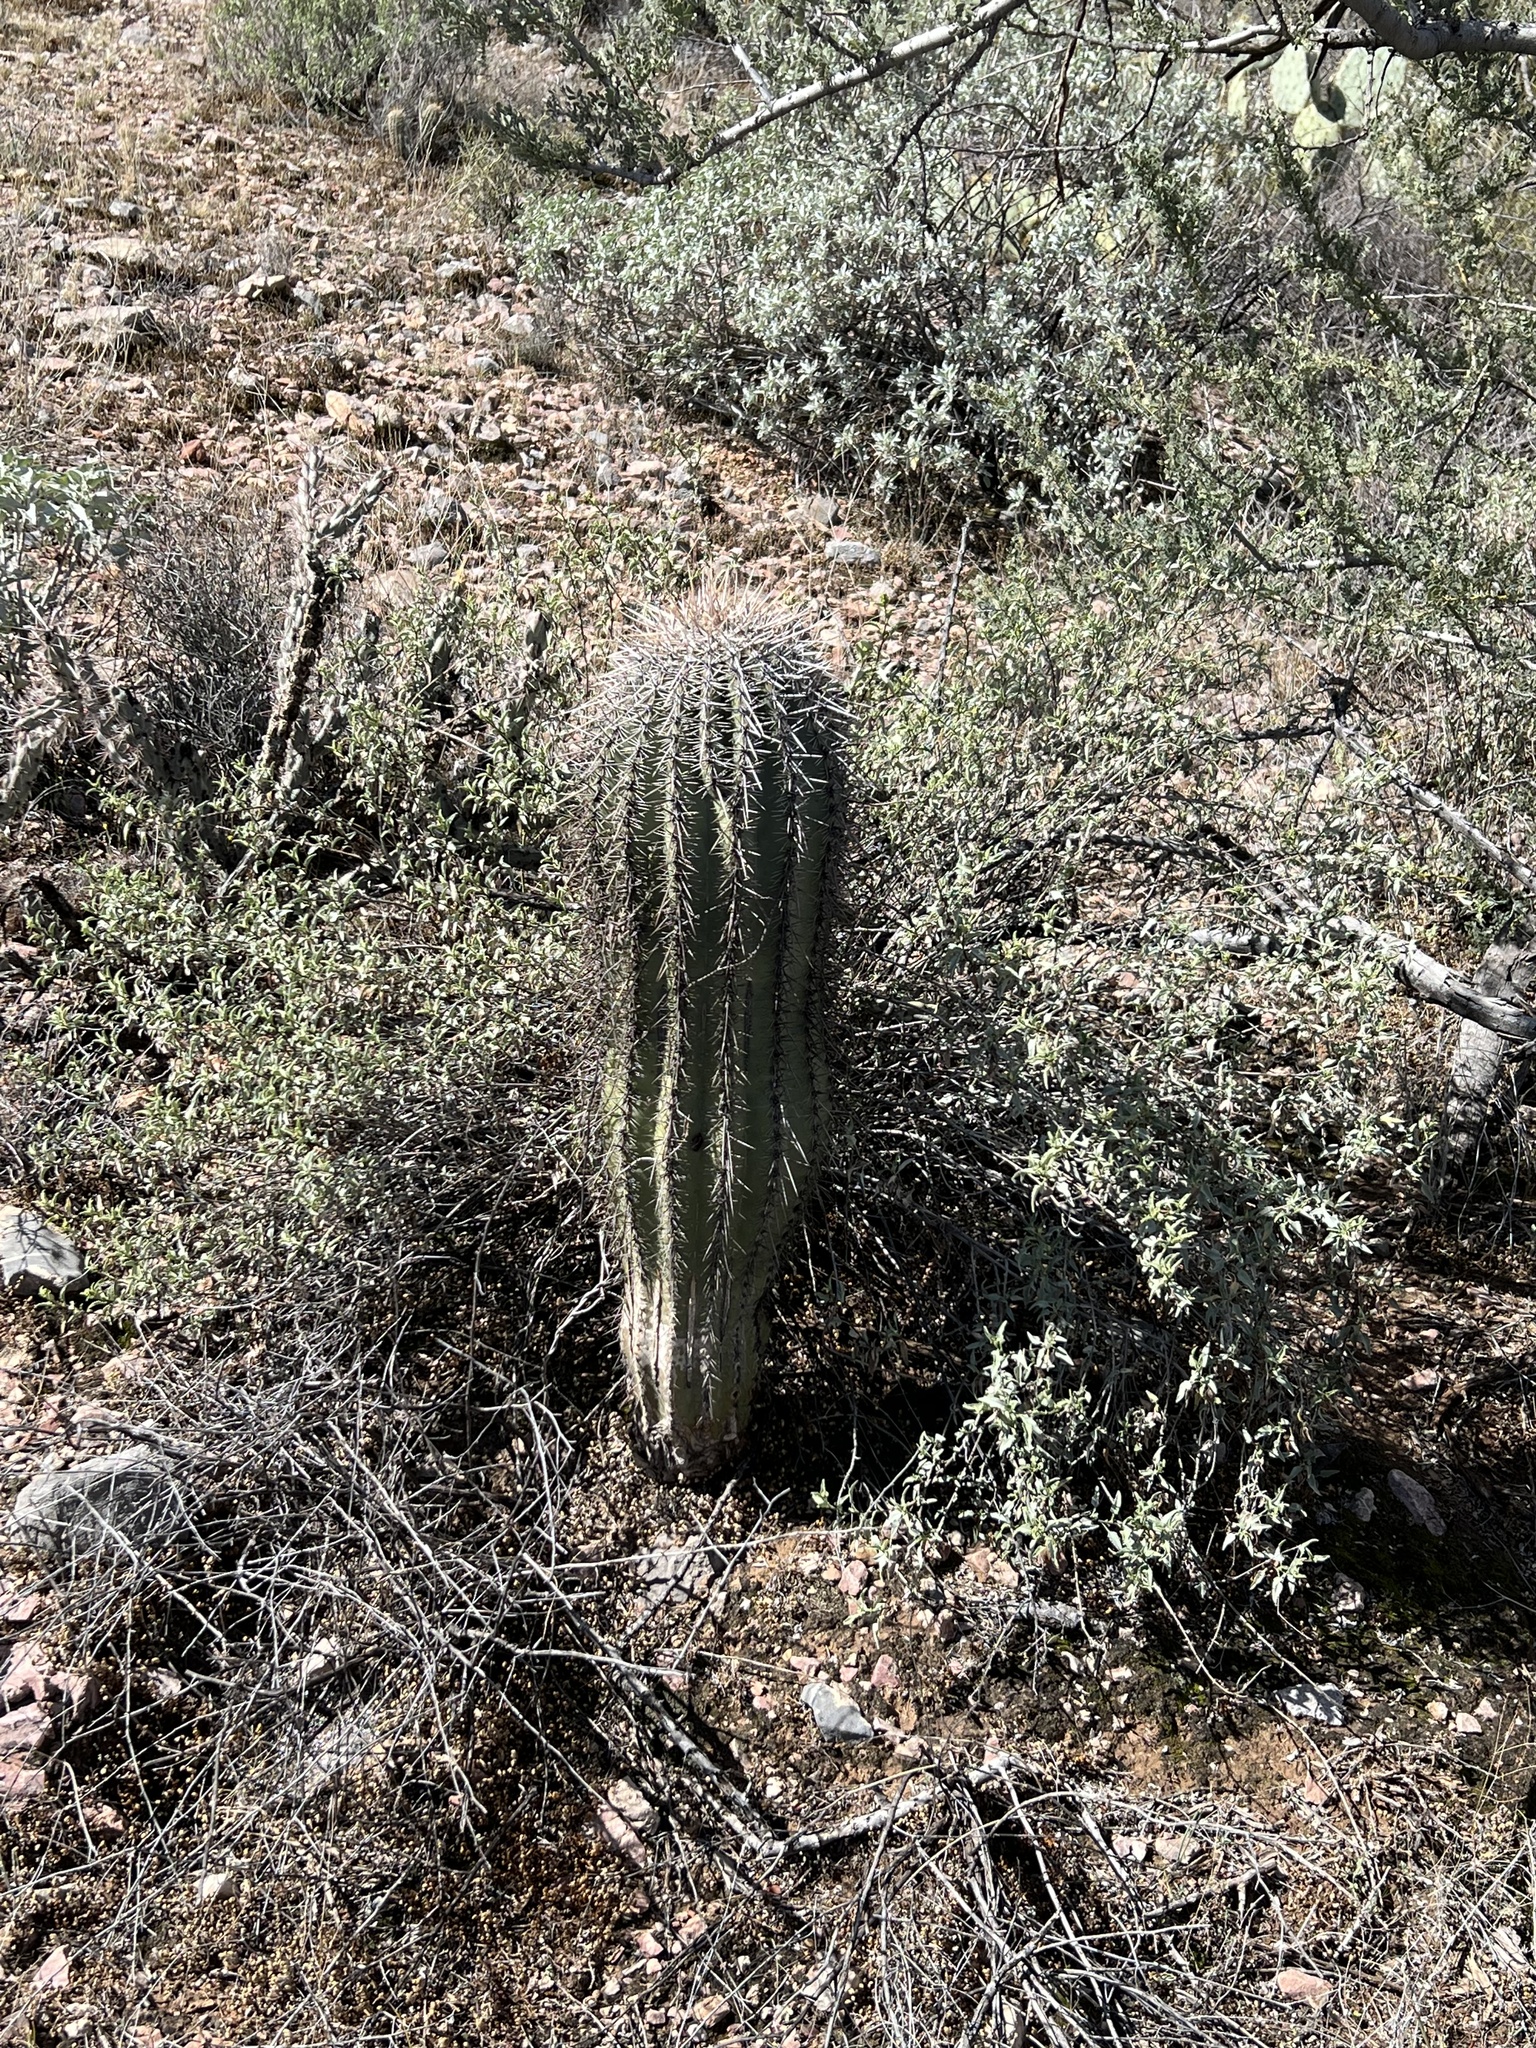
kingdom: Plantae
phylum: Tracheophyta
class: Magnoliopsida
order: Caryophyllales
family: Cactaceae
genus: Carnegiea
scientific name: Carnegiea gigantea
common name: Saguaro
